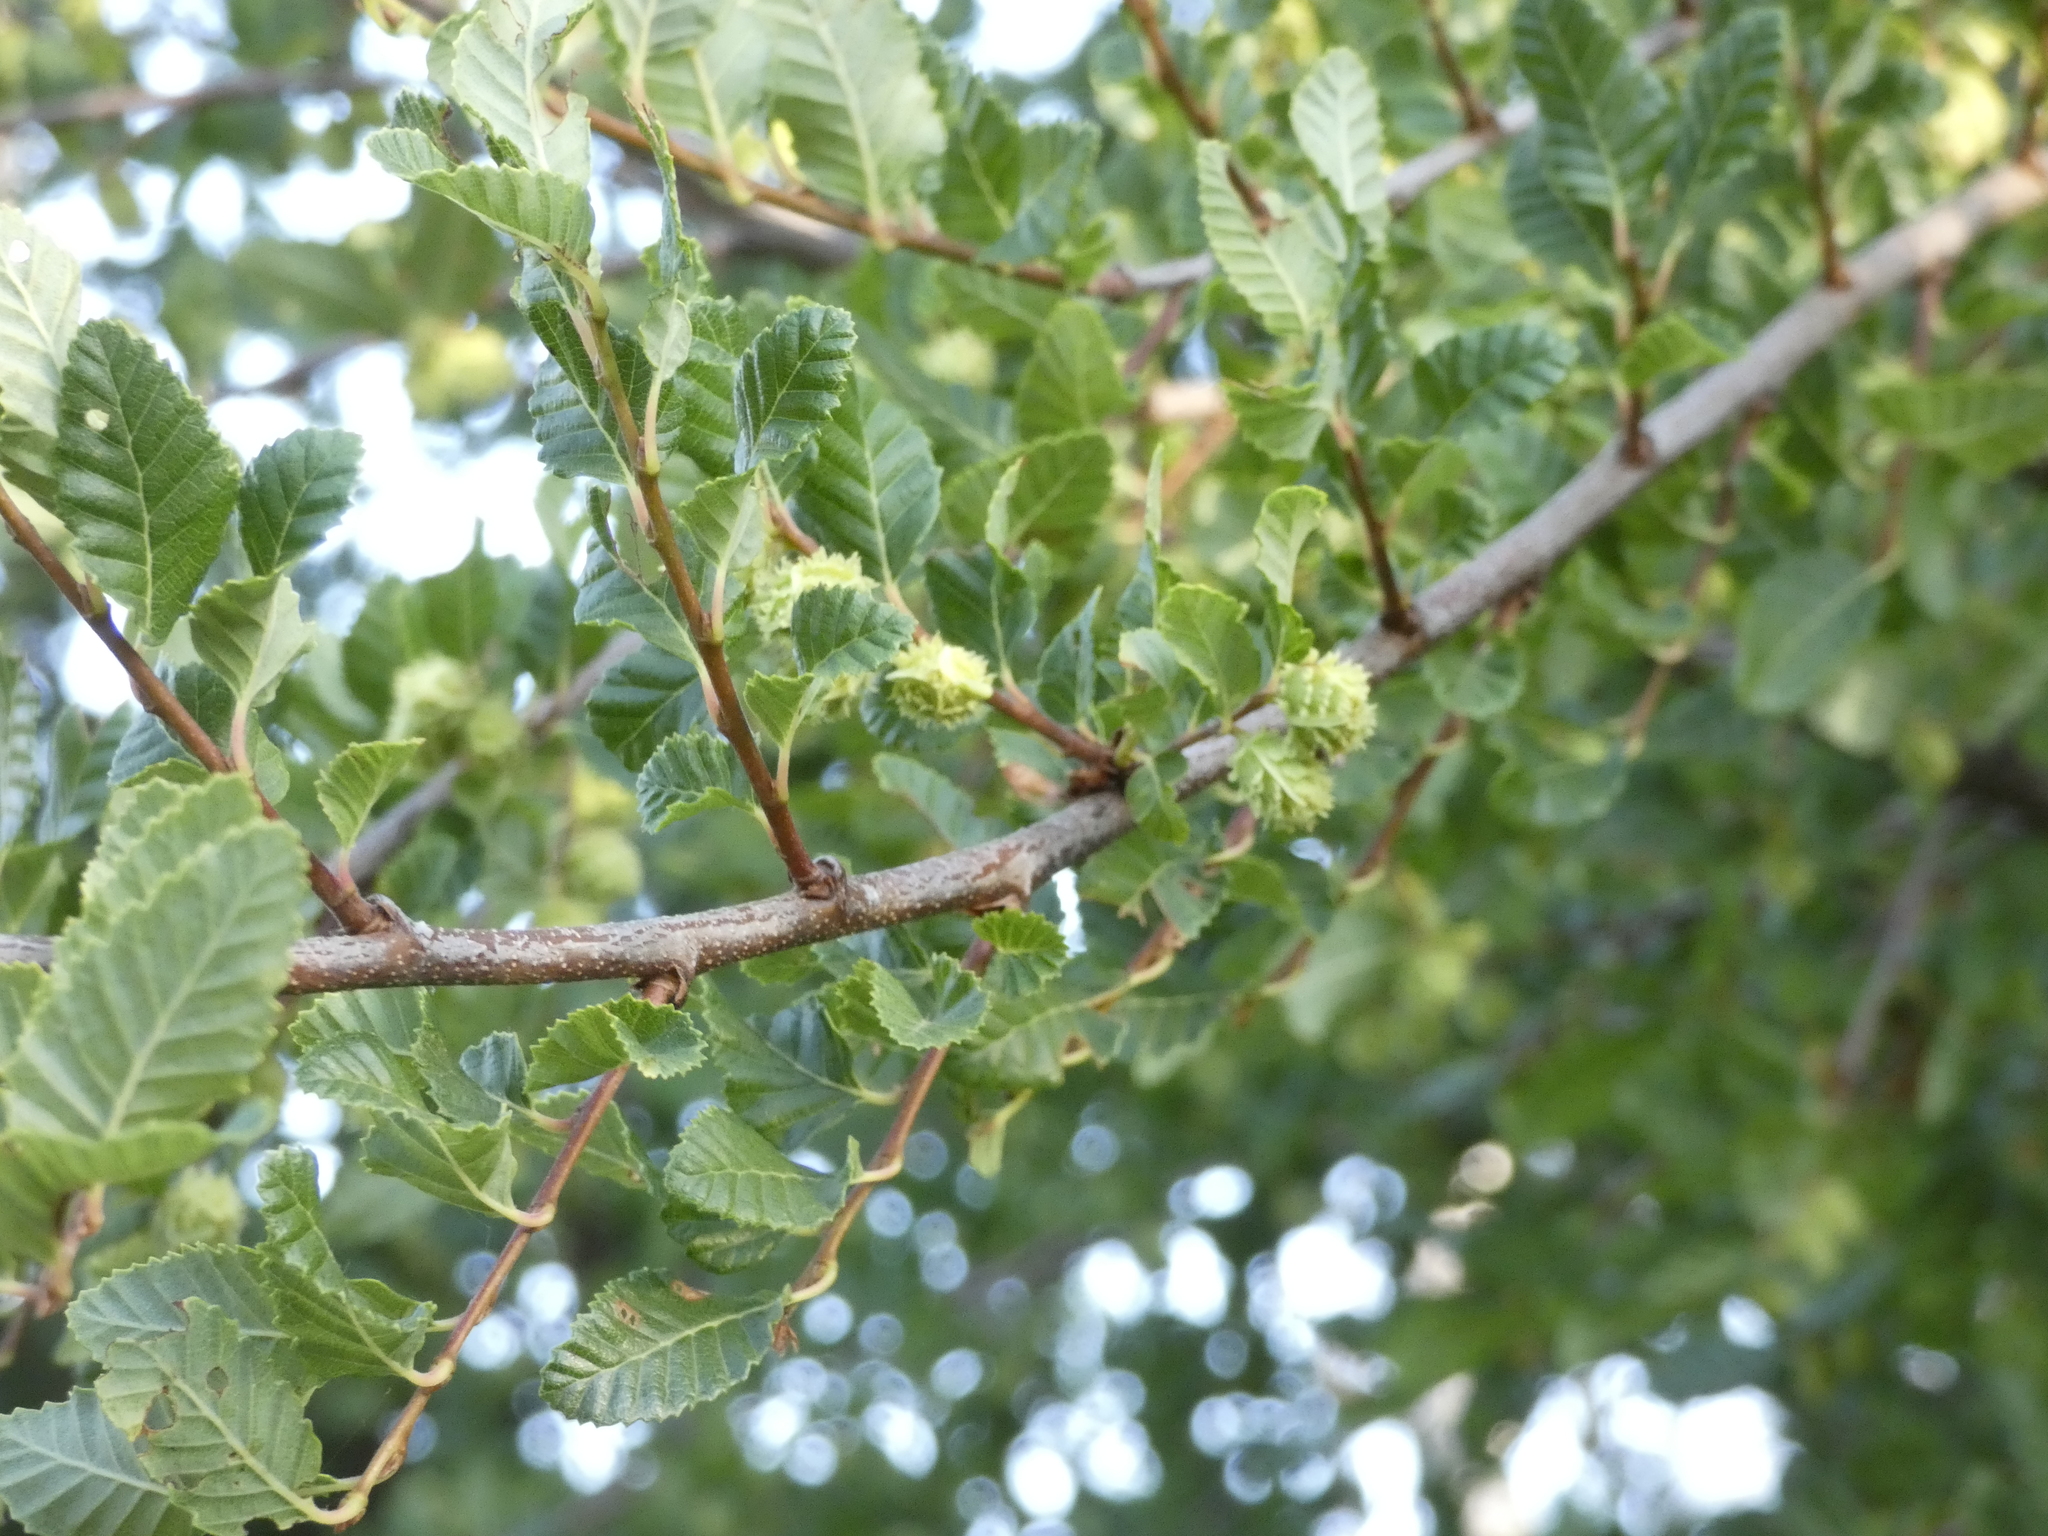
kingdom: Plantae
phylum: Tracheophyta
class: Magnoliopsida
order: Fagales
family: Nothofagaceae
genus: Nothofagus
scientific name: Nothofagus obliqua
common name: Roble beech
